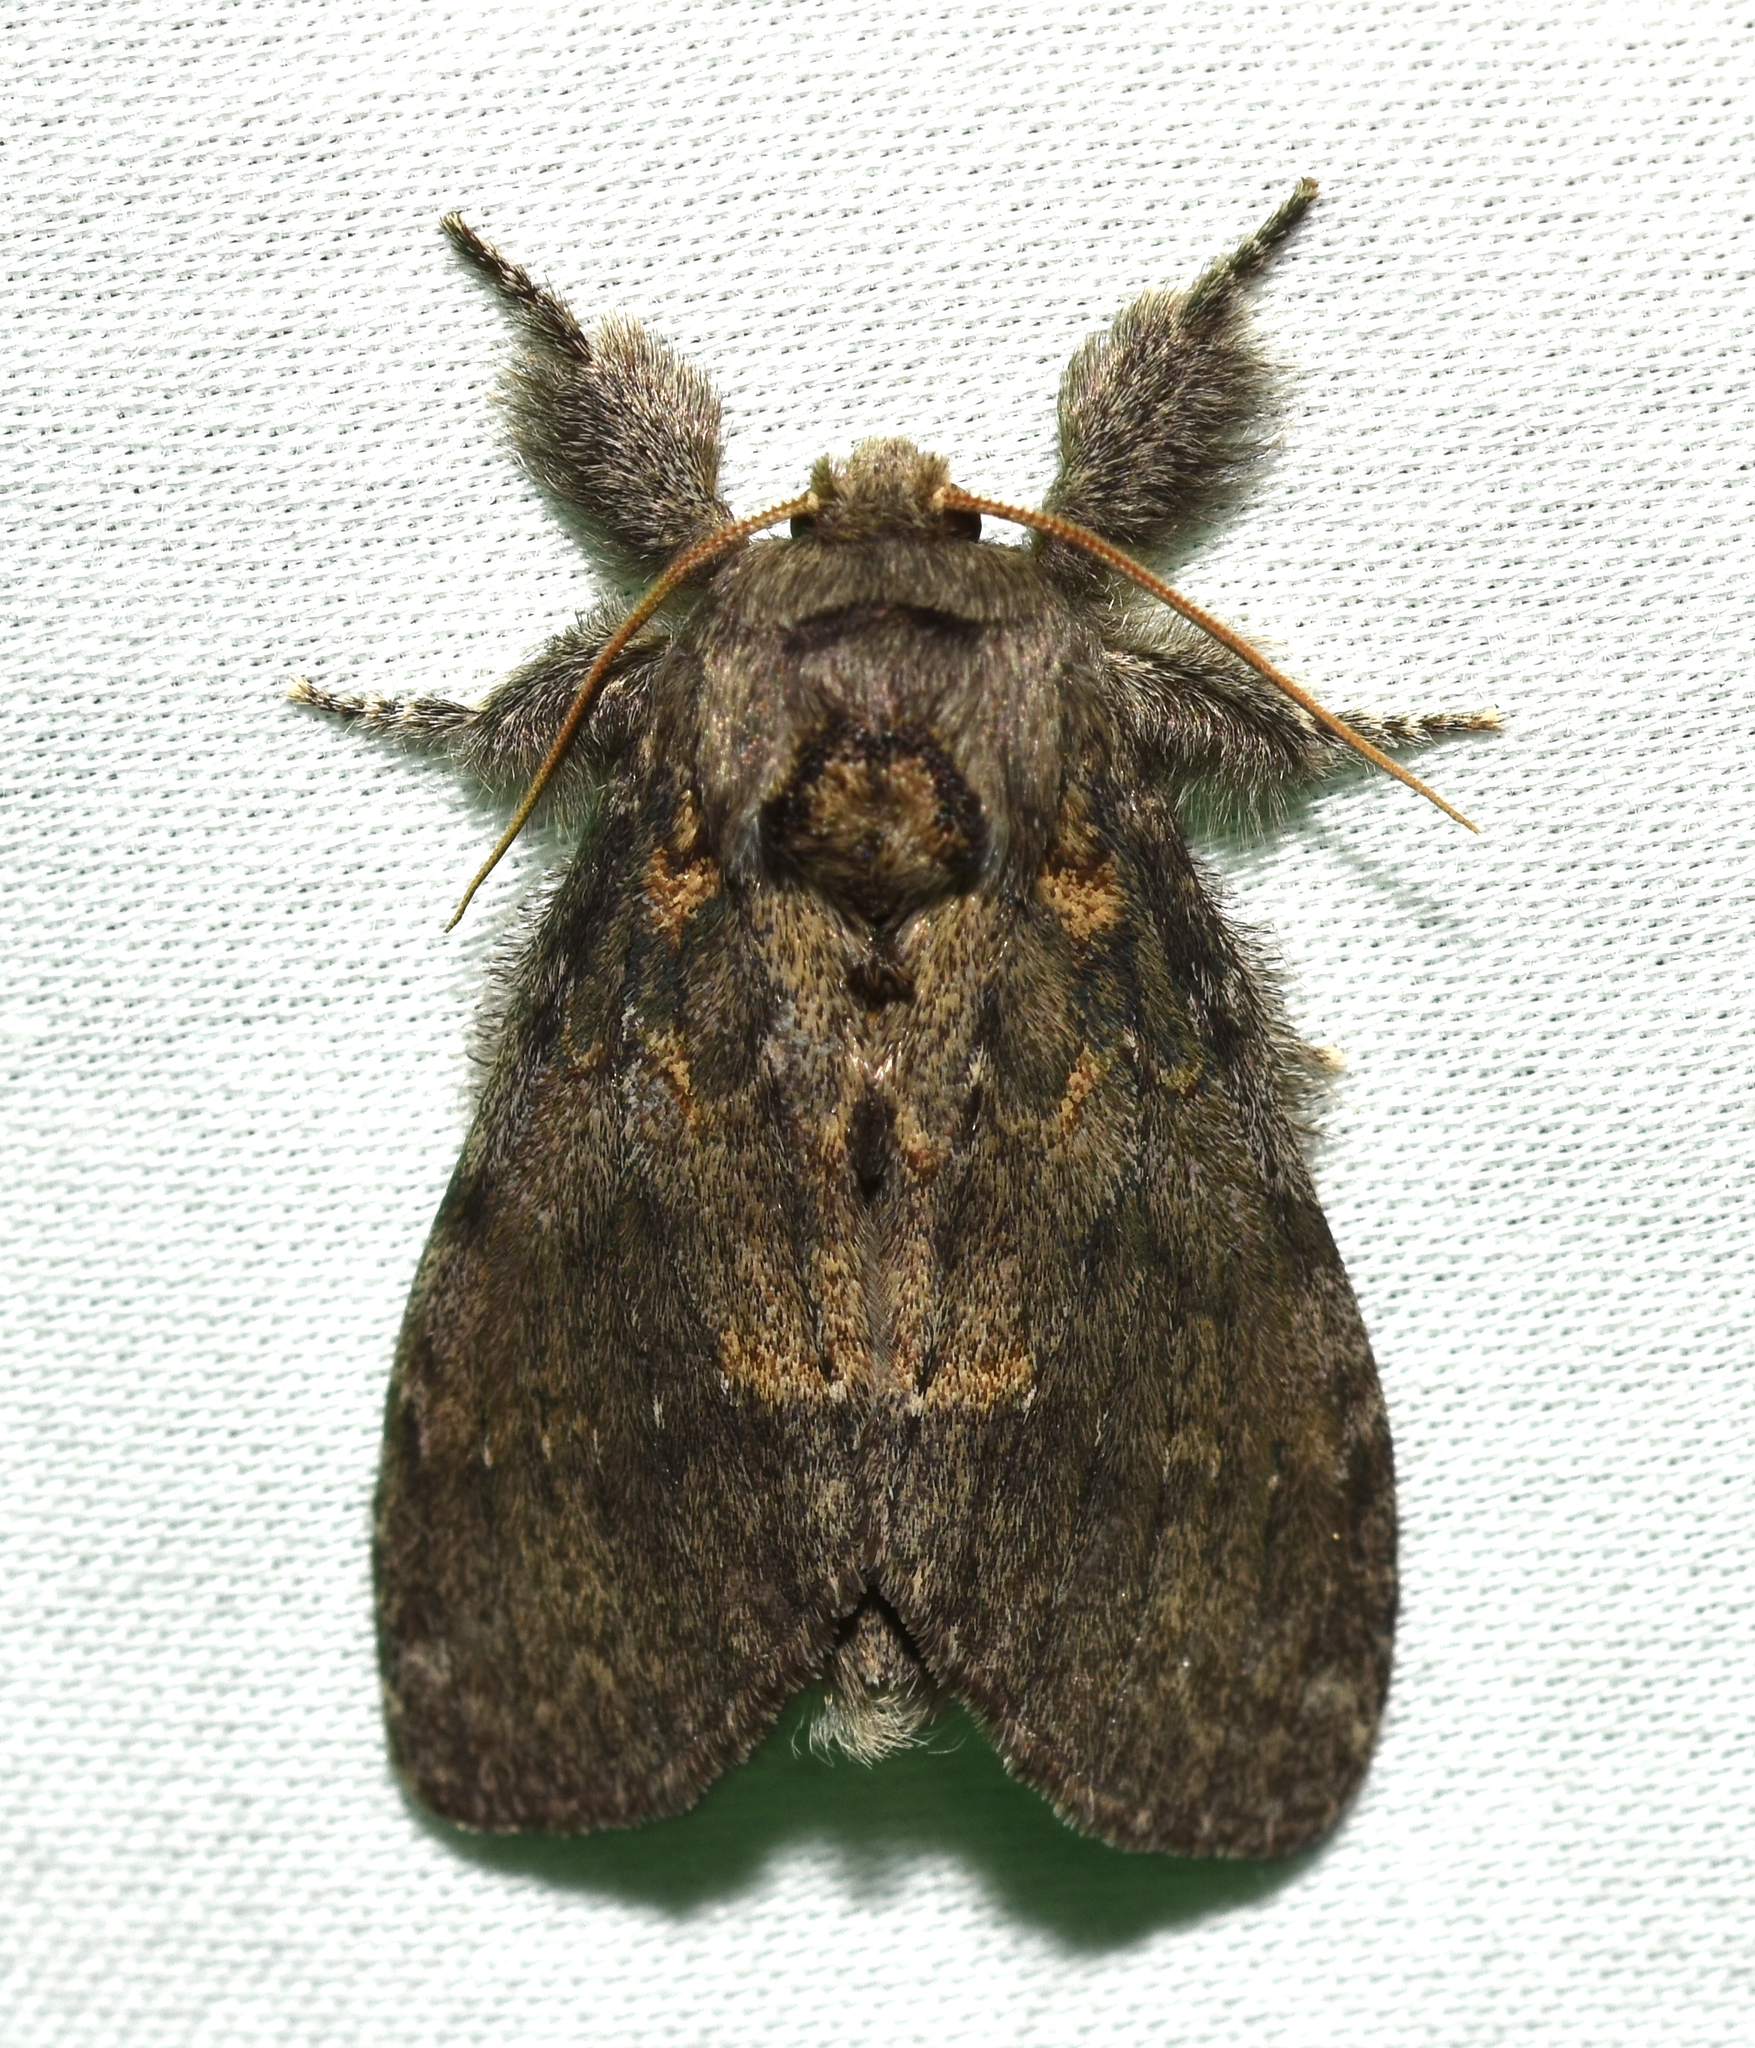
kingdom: Animalia
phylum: Arthropoda
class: Insecta
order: Lepidoptera
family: Notodontidae
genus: Peridea
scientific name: Peridea angulosa
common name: Angulose prominent
